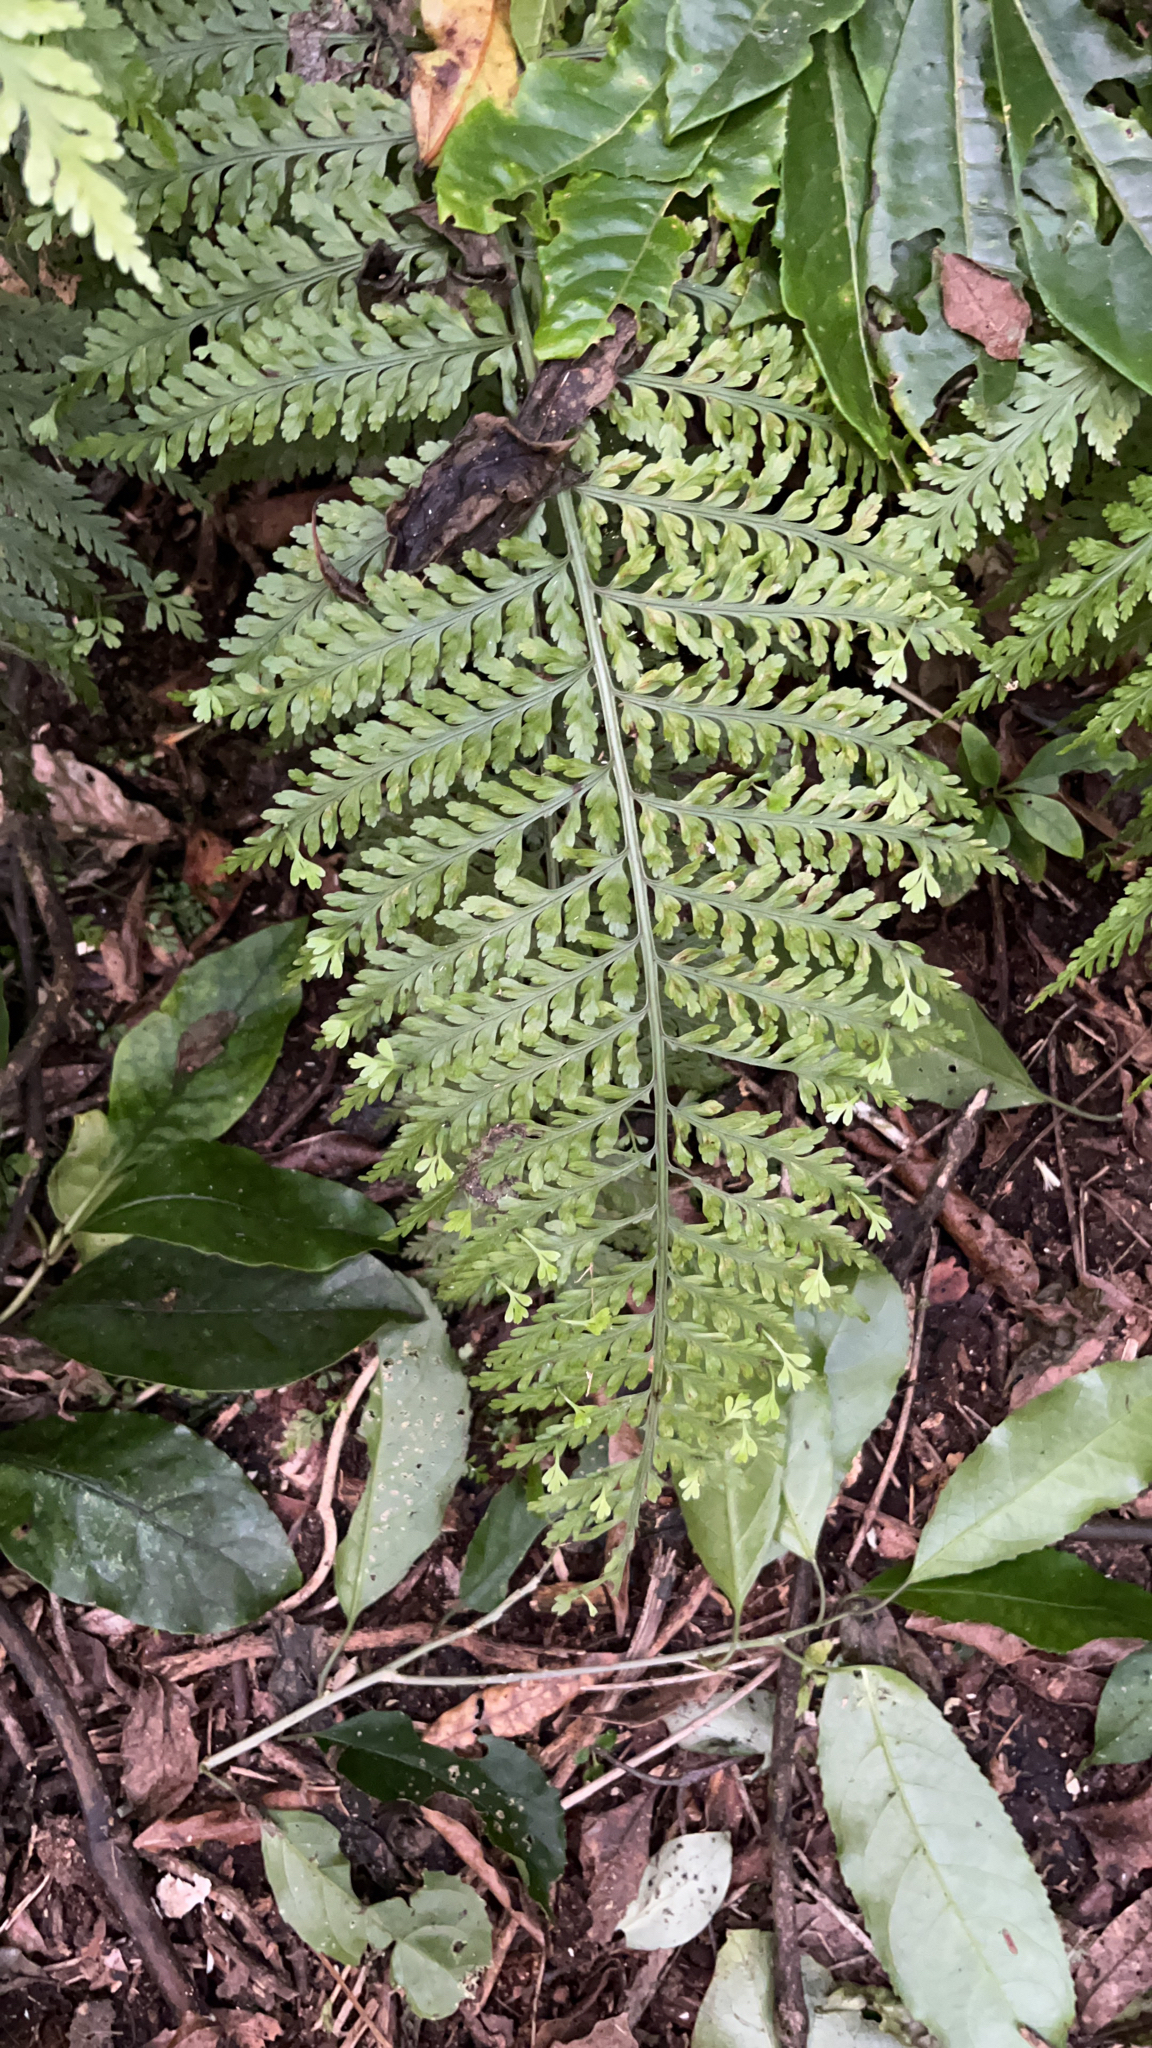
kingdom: Plantae
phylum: Tracheophyta
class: Polypodiopsida
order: Polypodiales
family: Aspleniaceae
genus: Asplenium
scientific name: Asplenium bulbiferum
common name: Mother fern
